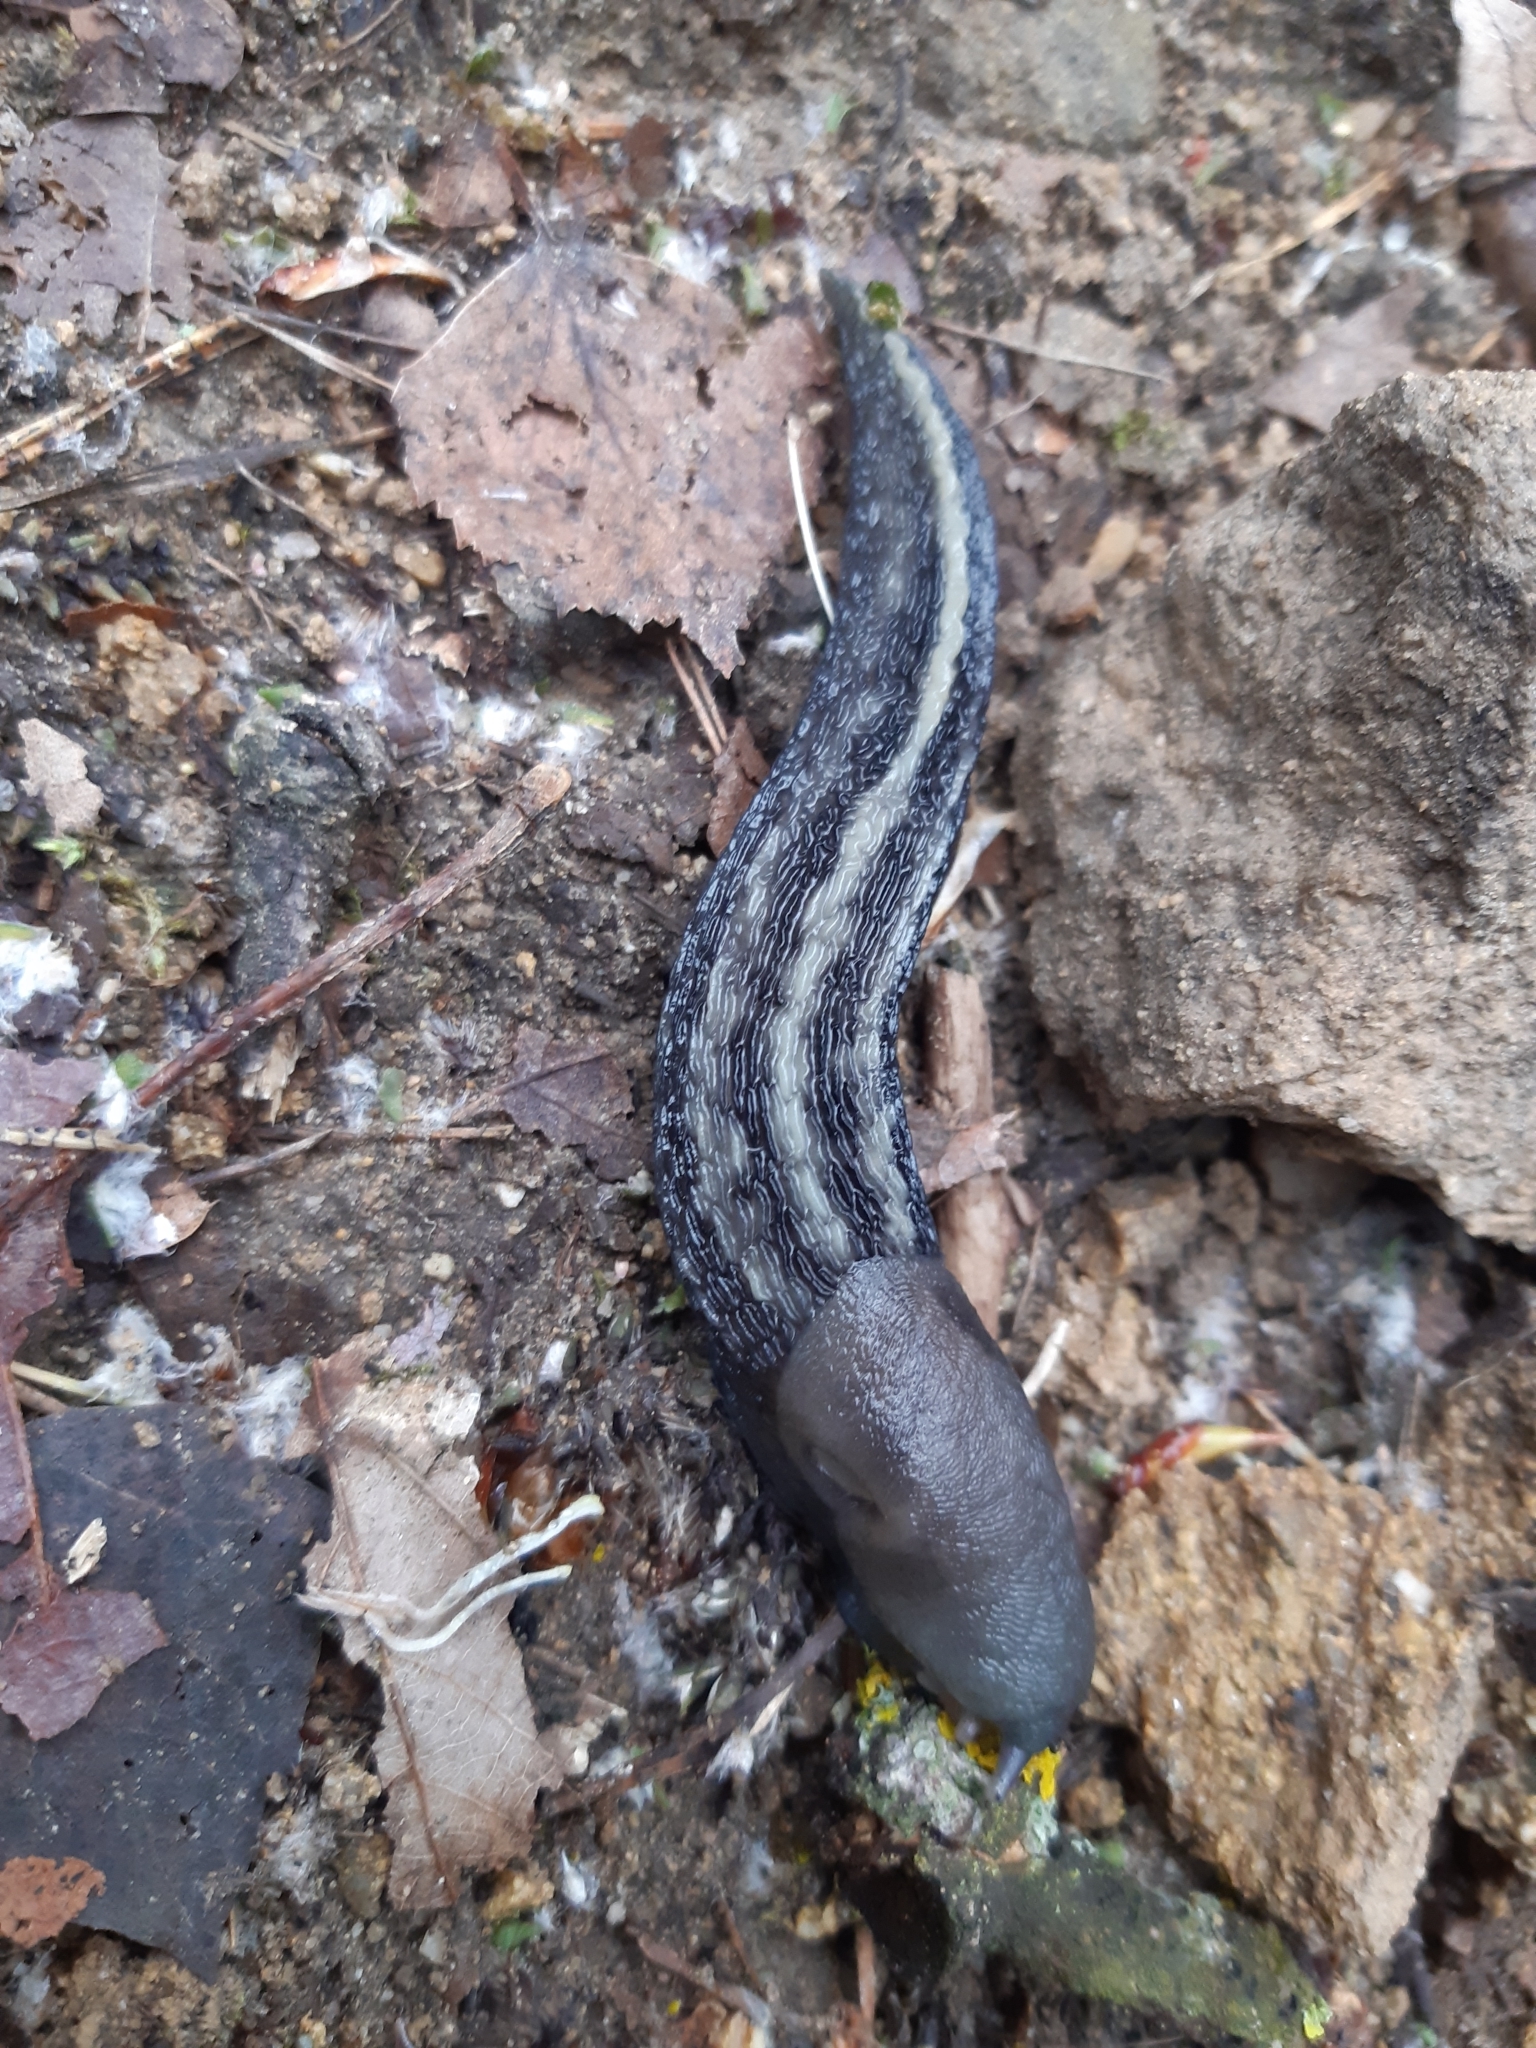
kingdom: Animalia
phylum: Mollusca
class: Gastropoda
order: Stylommatophora
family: Limacidae
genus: Limax
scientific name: Limax cinereoniger
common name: Ash-black slug
